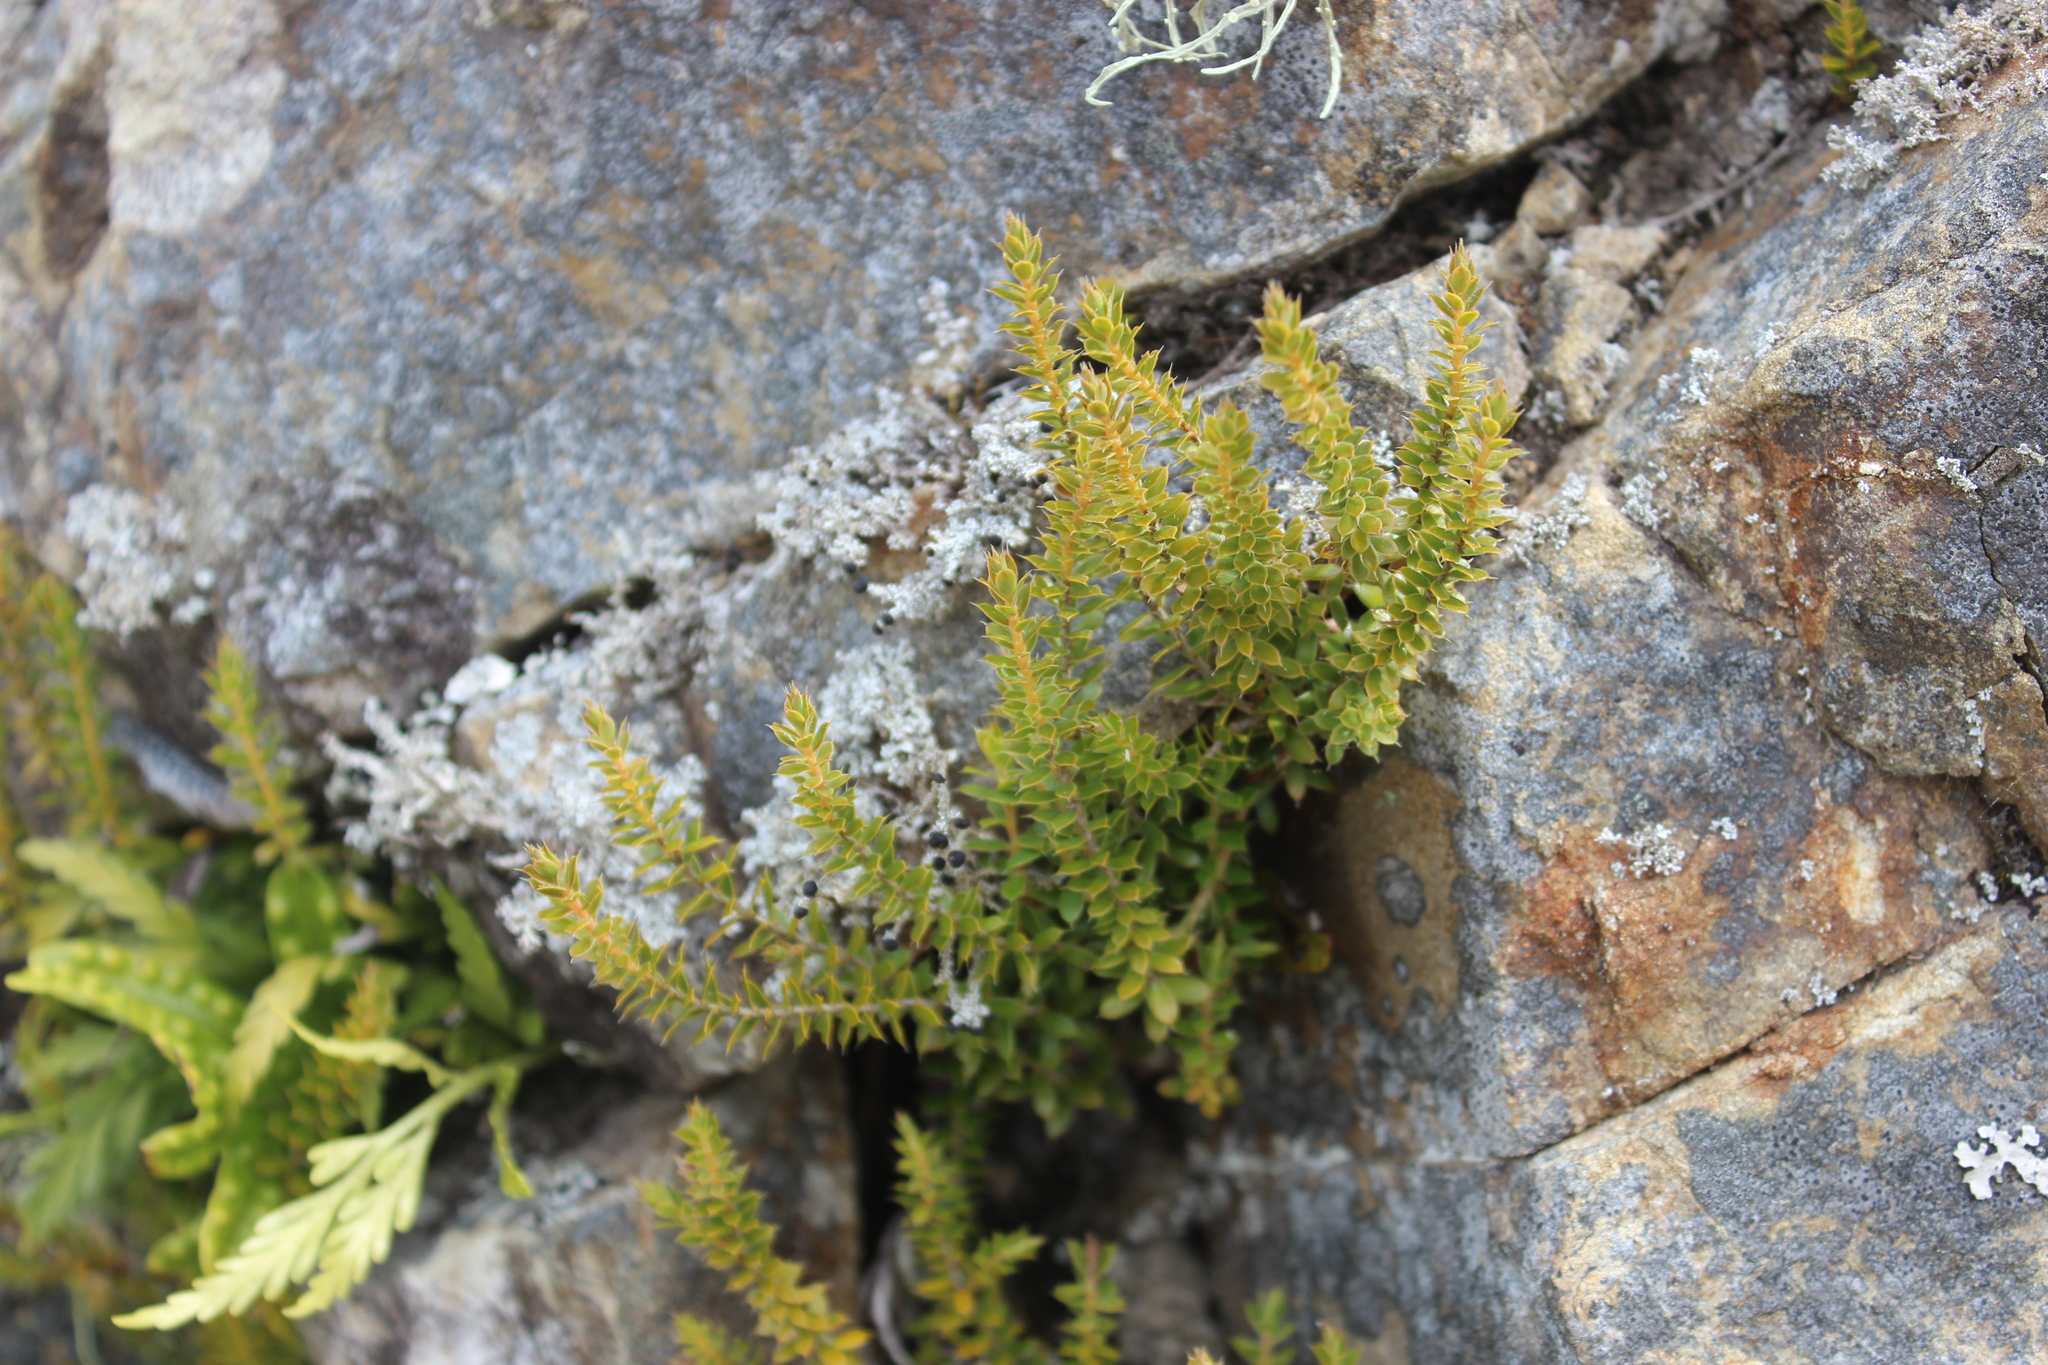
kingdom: Plantae
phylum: Tracheophyta
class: Magnoliopsida
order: Ericales
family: Ericaceae
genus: Styphelia
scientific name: Styphelia nesophila
